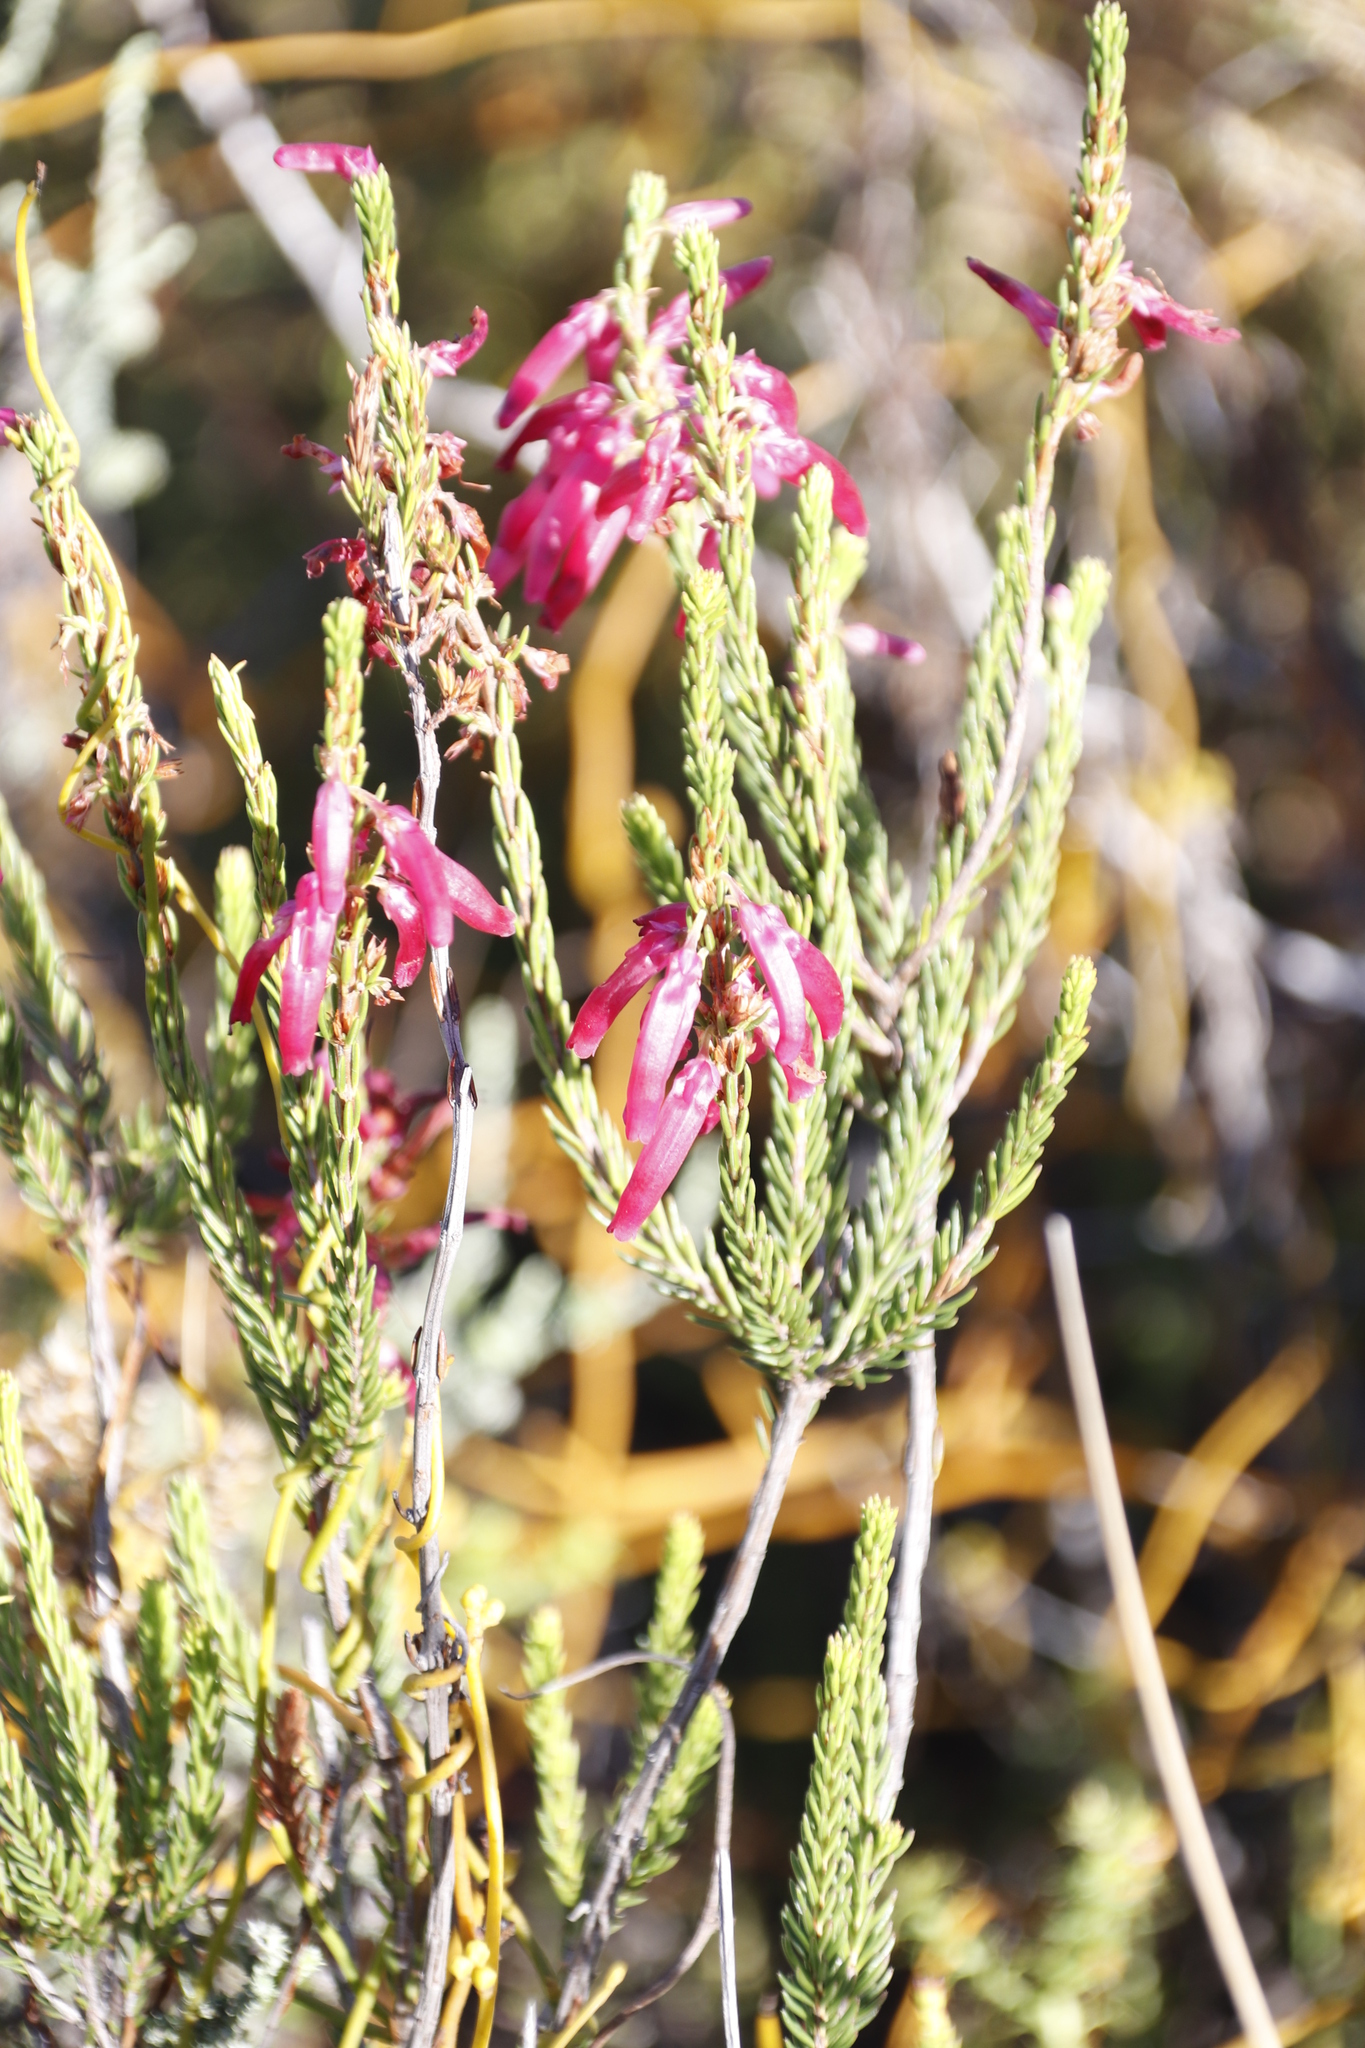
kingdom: Plantae
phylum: Tracheophyta
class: Magnoliopsida
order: Ericales
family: Ericaceae
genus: Erica
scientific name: Erica mammosa
